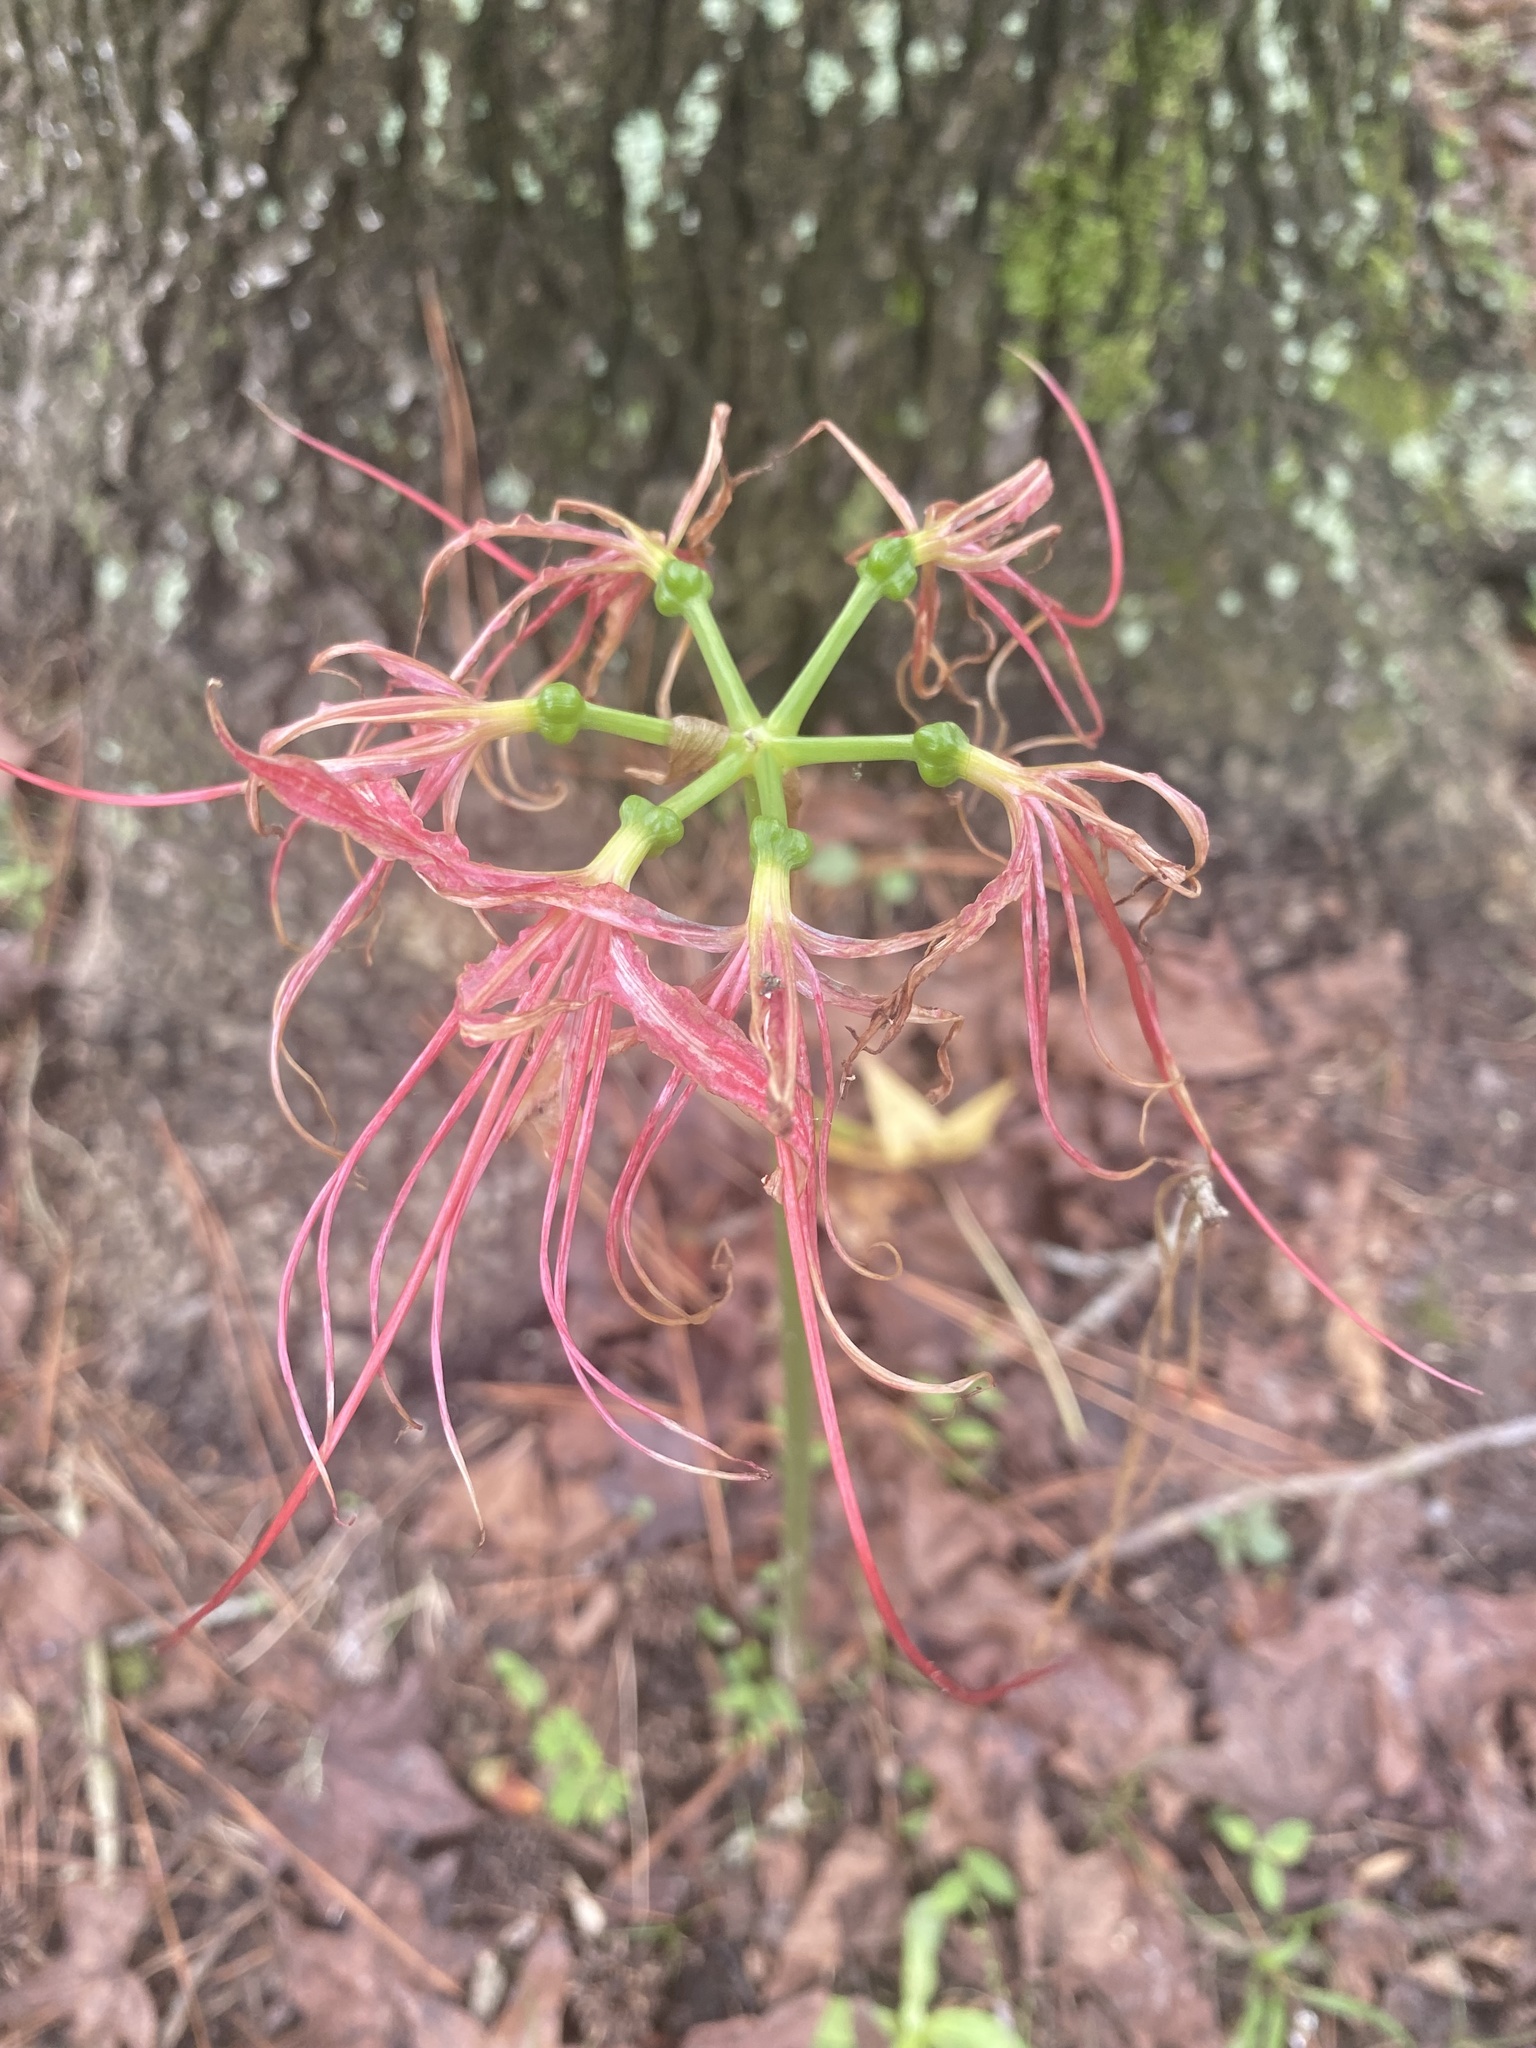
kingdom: Plantae
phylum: Tracheophyta
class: Liliopsida
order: Asparagales
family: Amaryllidaceae
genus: Lycoris
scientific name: Lycoris radiata
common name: Red spider lily
